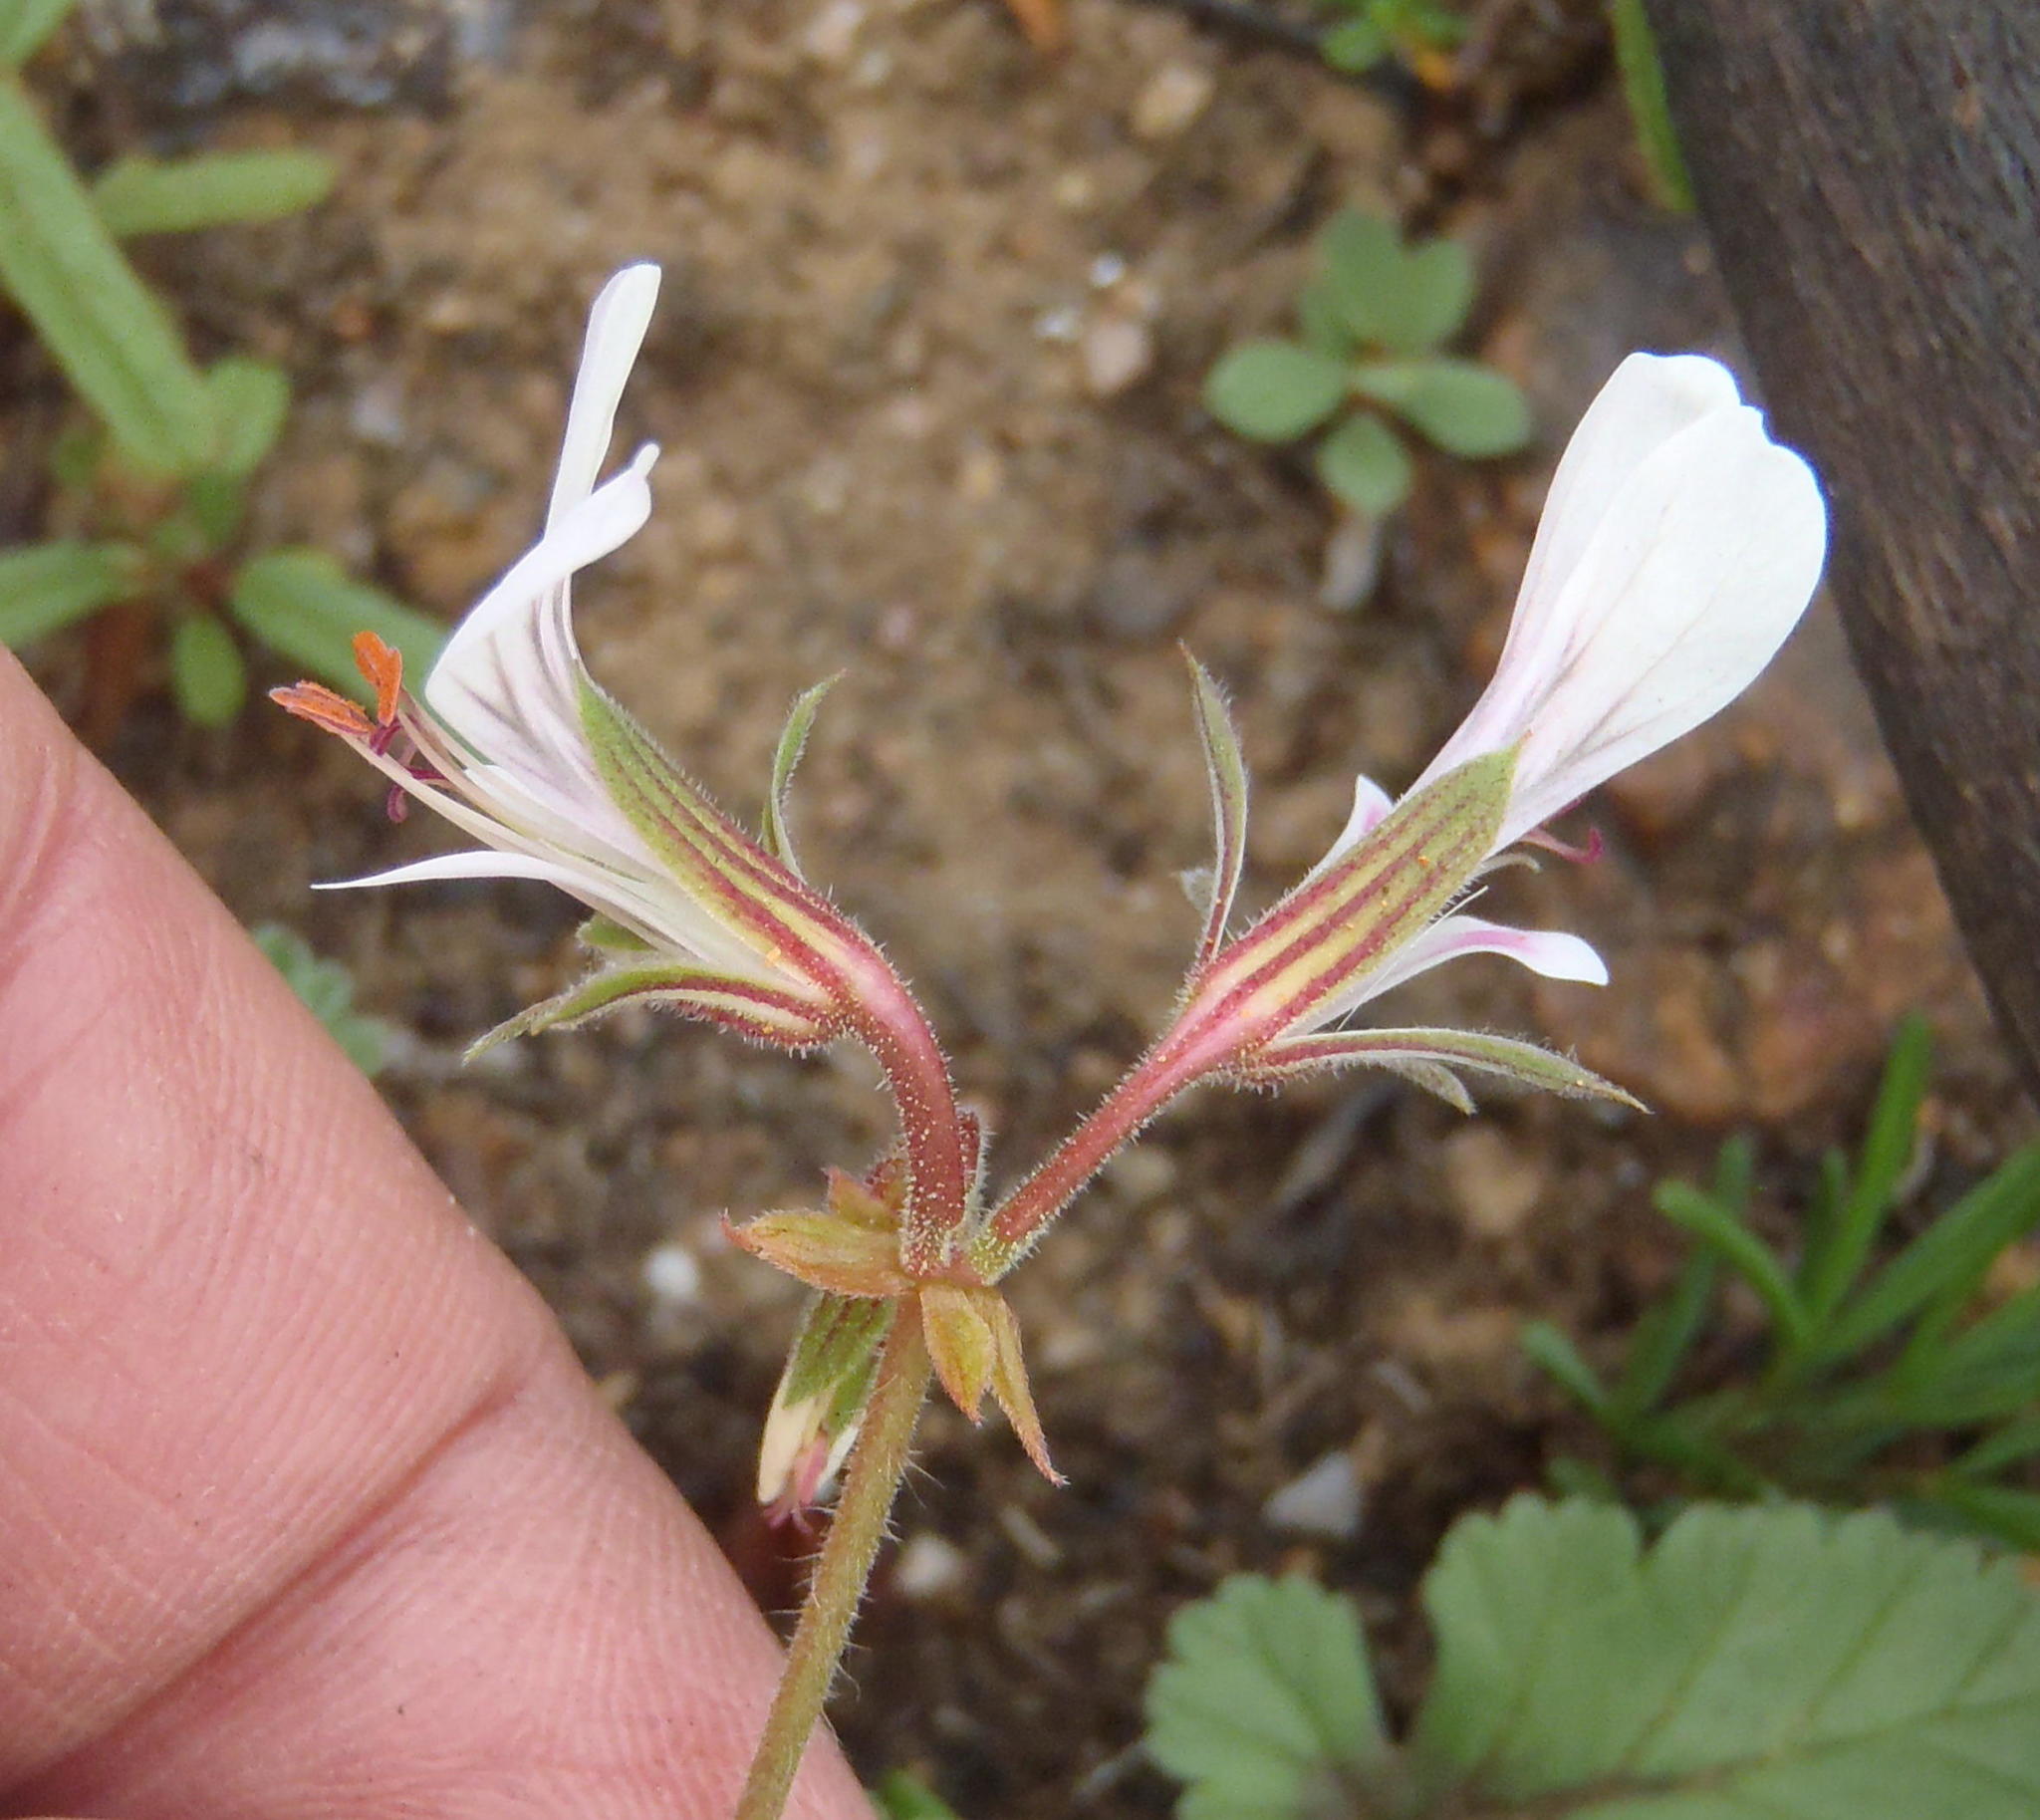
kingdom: Plantae
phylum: Tracheophyta
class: Magnoliopsida
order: Geraniales
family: Geraniaceae
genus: Pelargonium
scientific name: Pelargonium candicans
